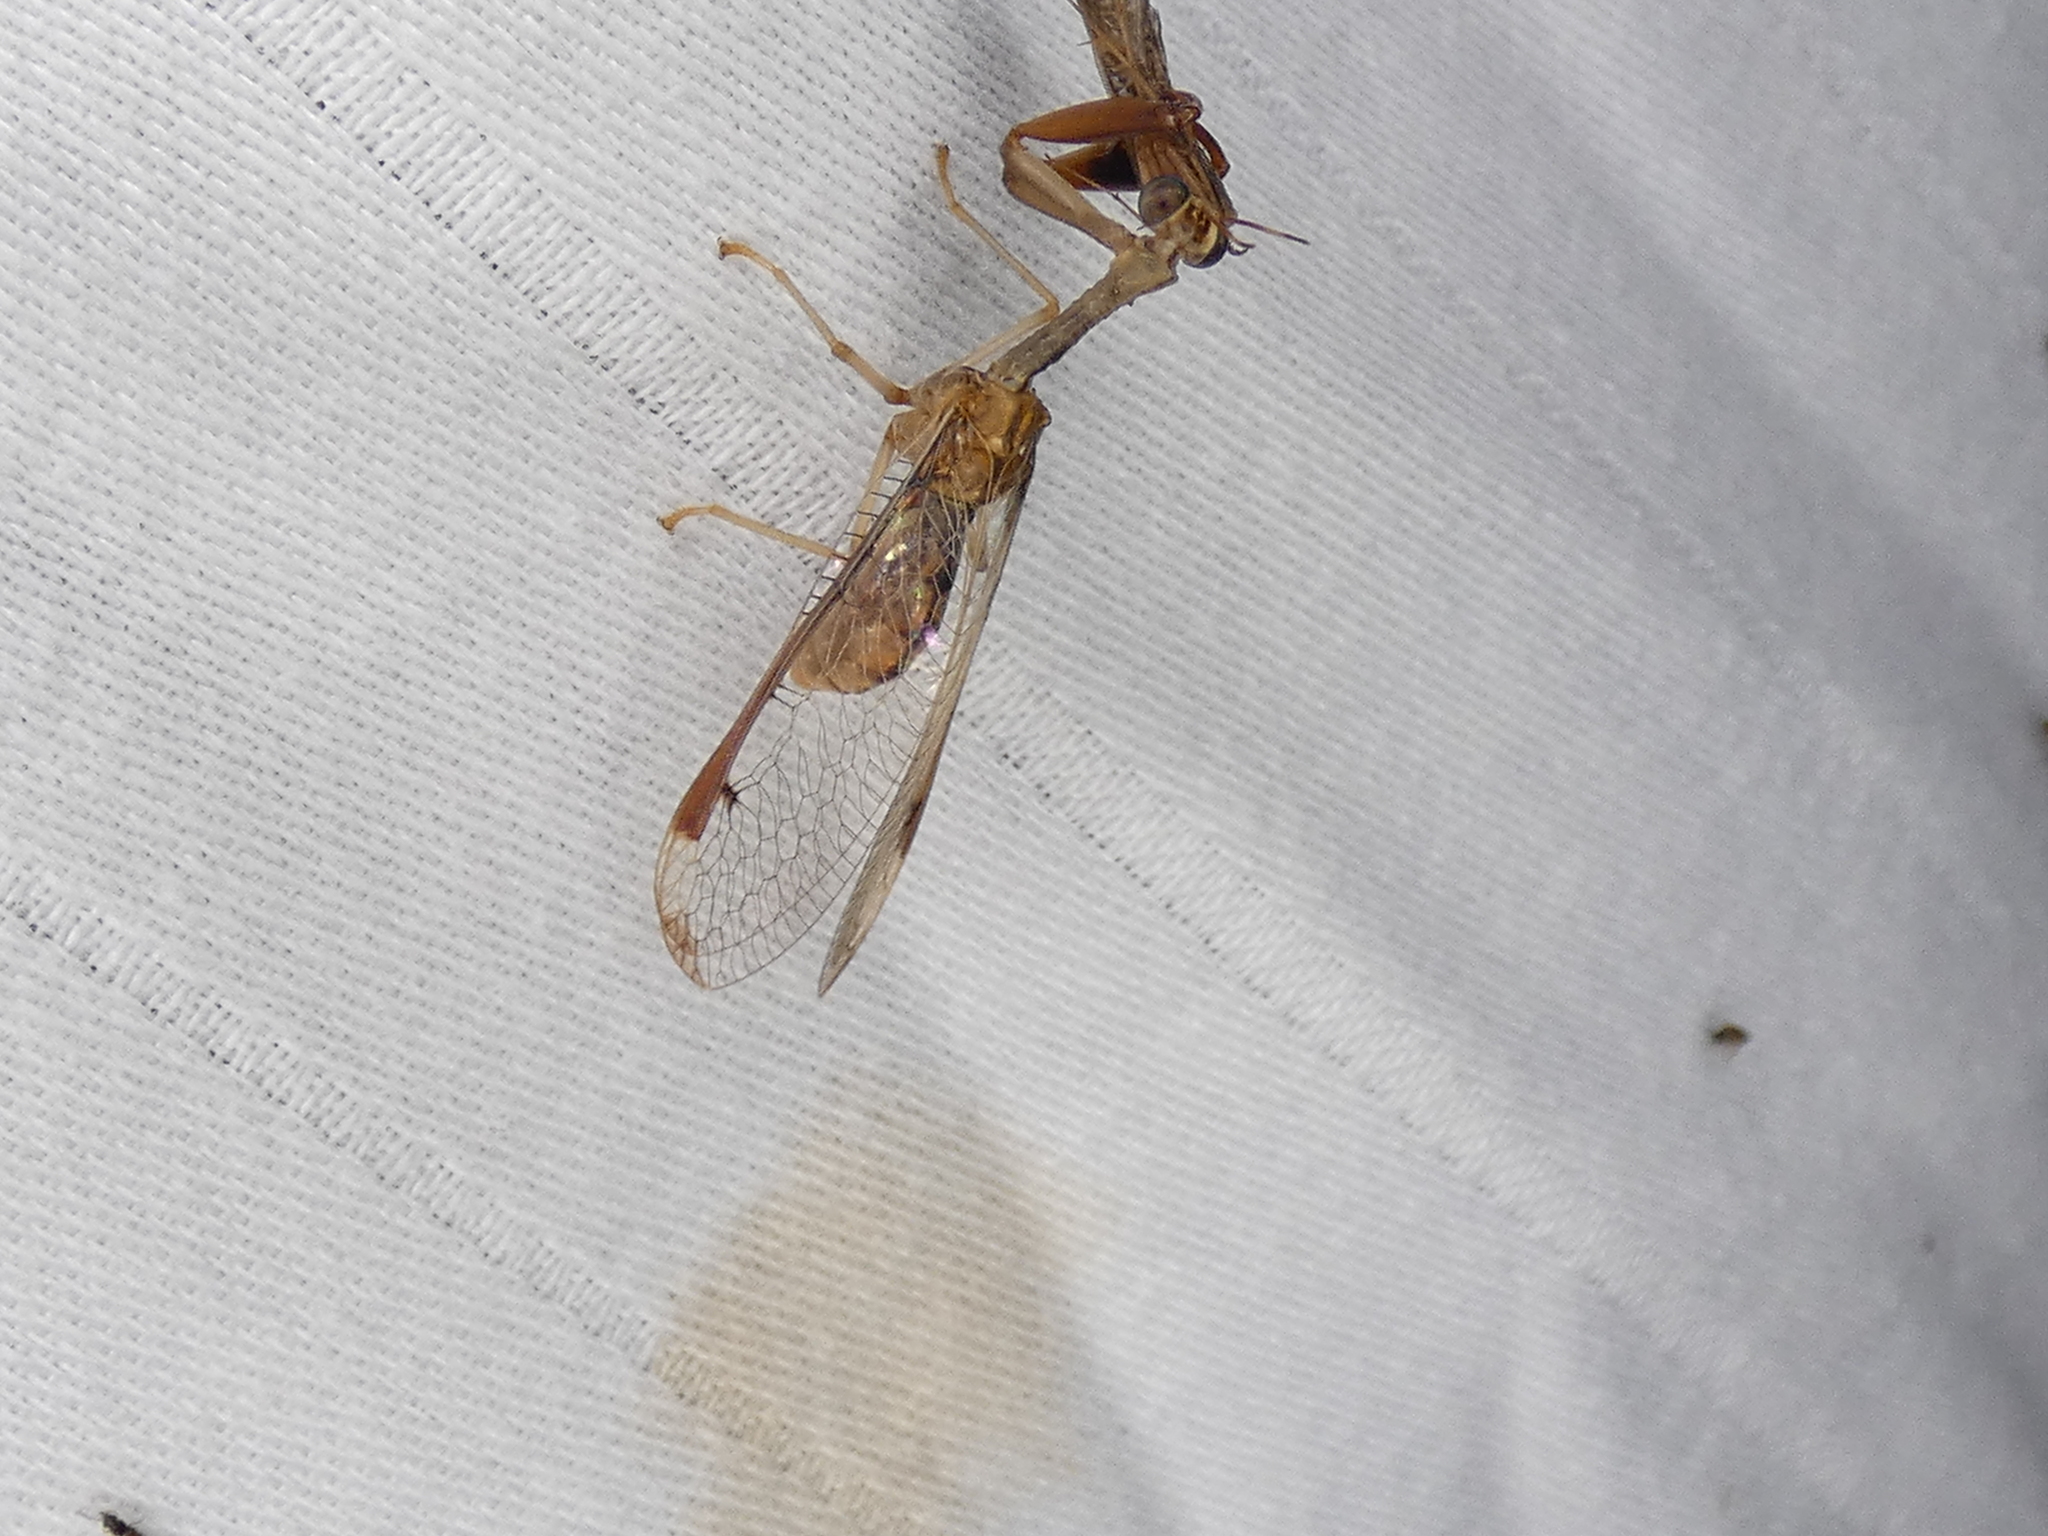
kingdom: Animalia
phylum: Arthropoda
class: Insecta
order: Neuroptera
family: Mantispidae
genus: Dicromantispa
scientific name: Dicromantispa interrupta
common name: Four-spotted mantidfly
